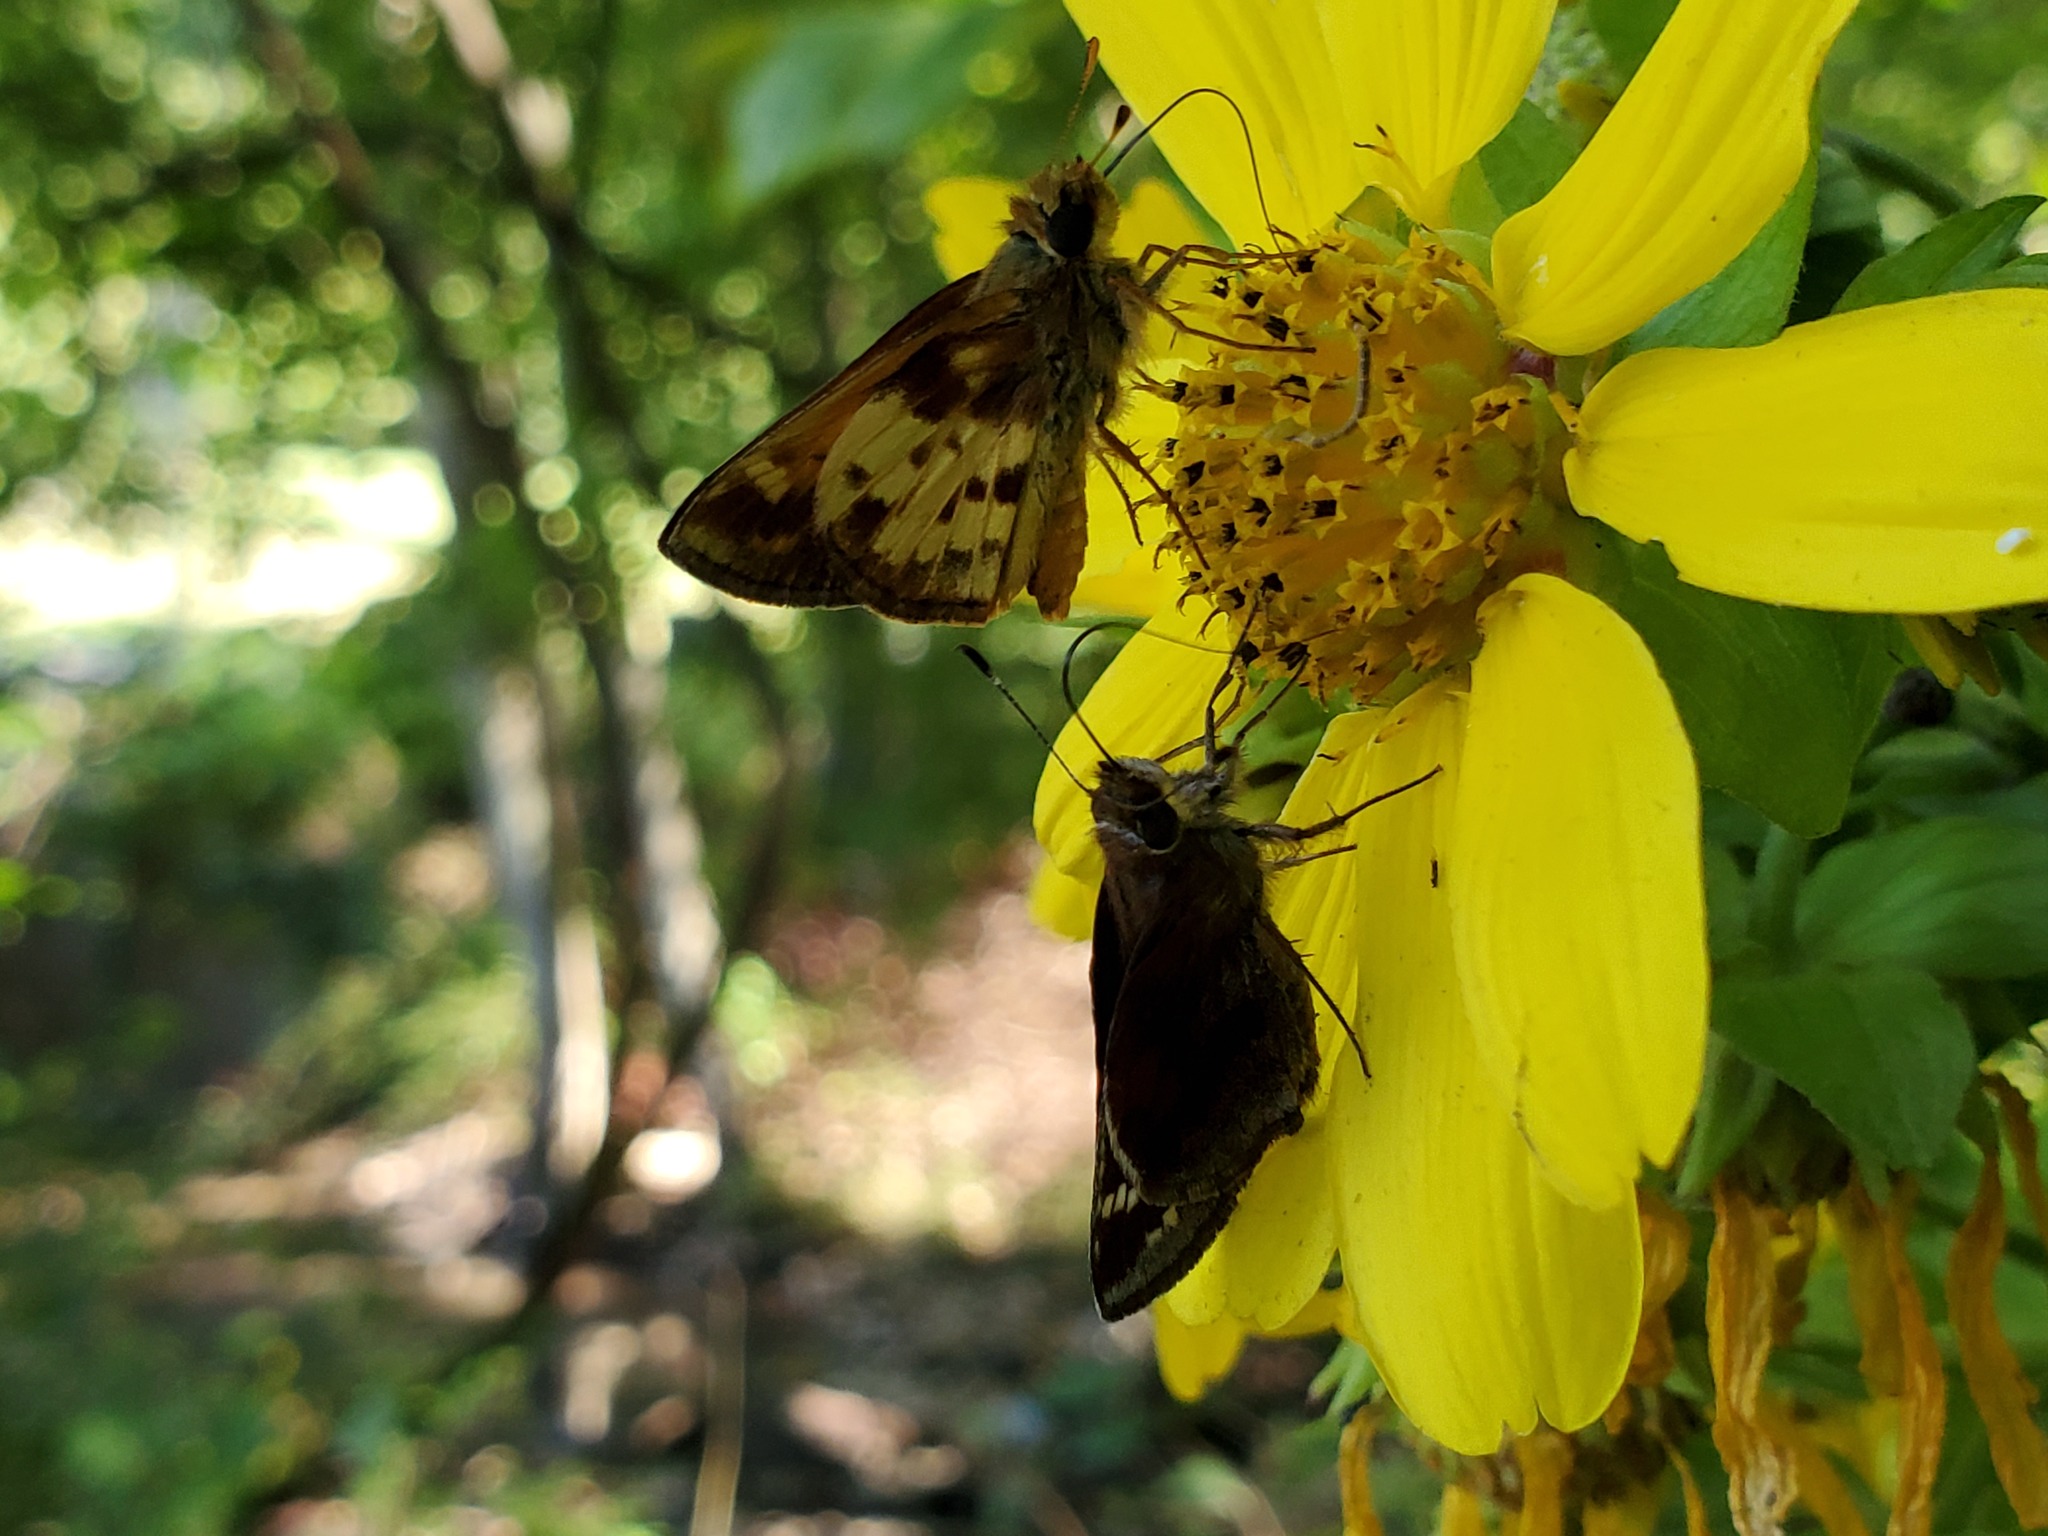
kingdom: Animalia
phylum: Arthropoda
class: Insecta
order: Lepidoptera
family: Hesperiidae
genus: Lon
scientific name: Lon zabulon
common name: Zabulon skipper
